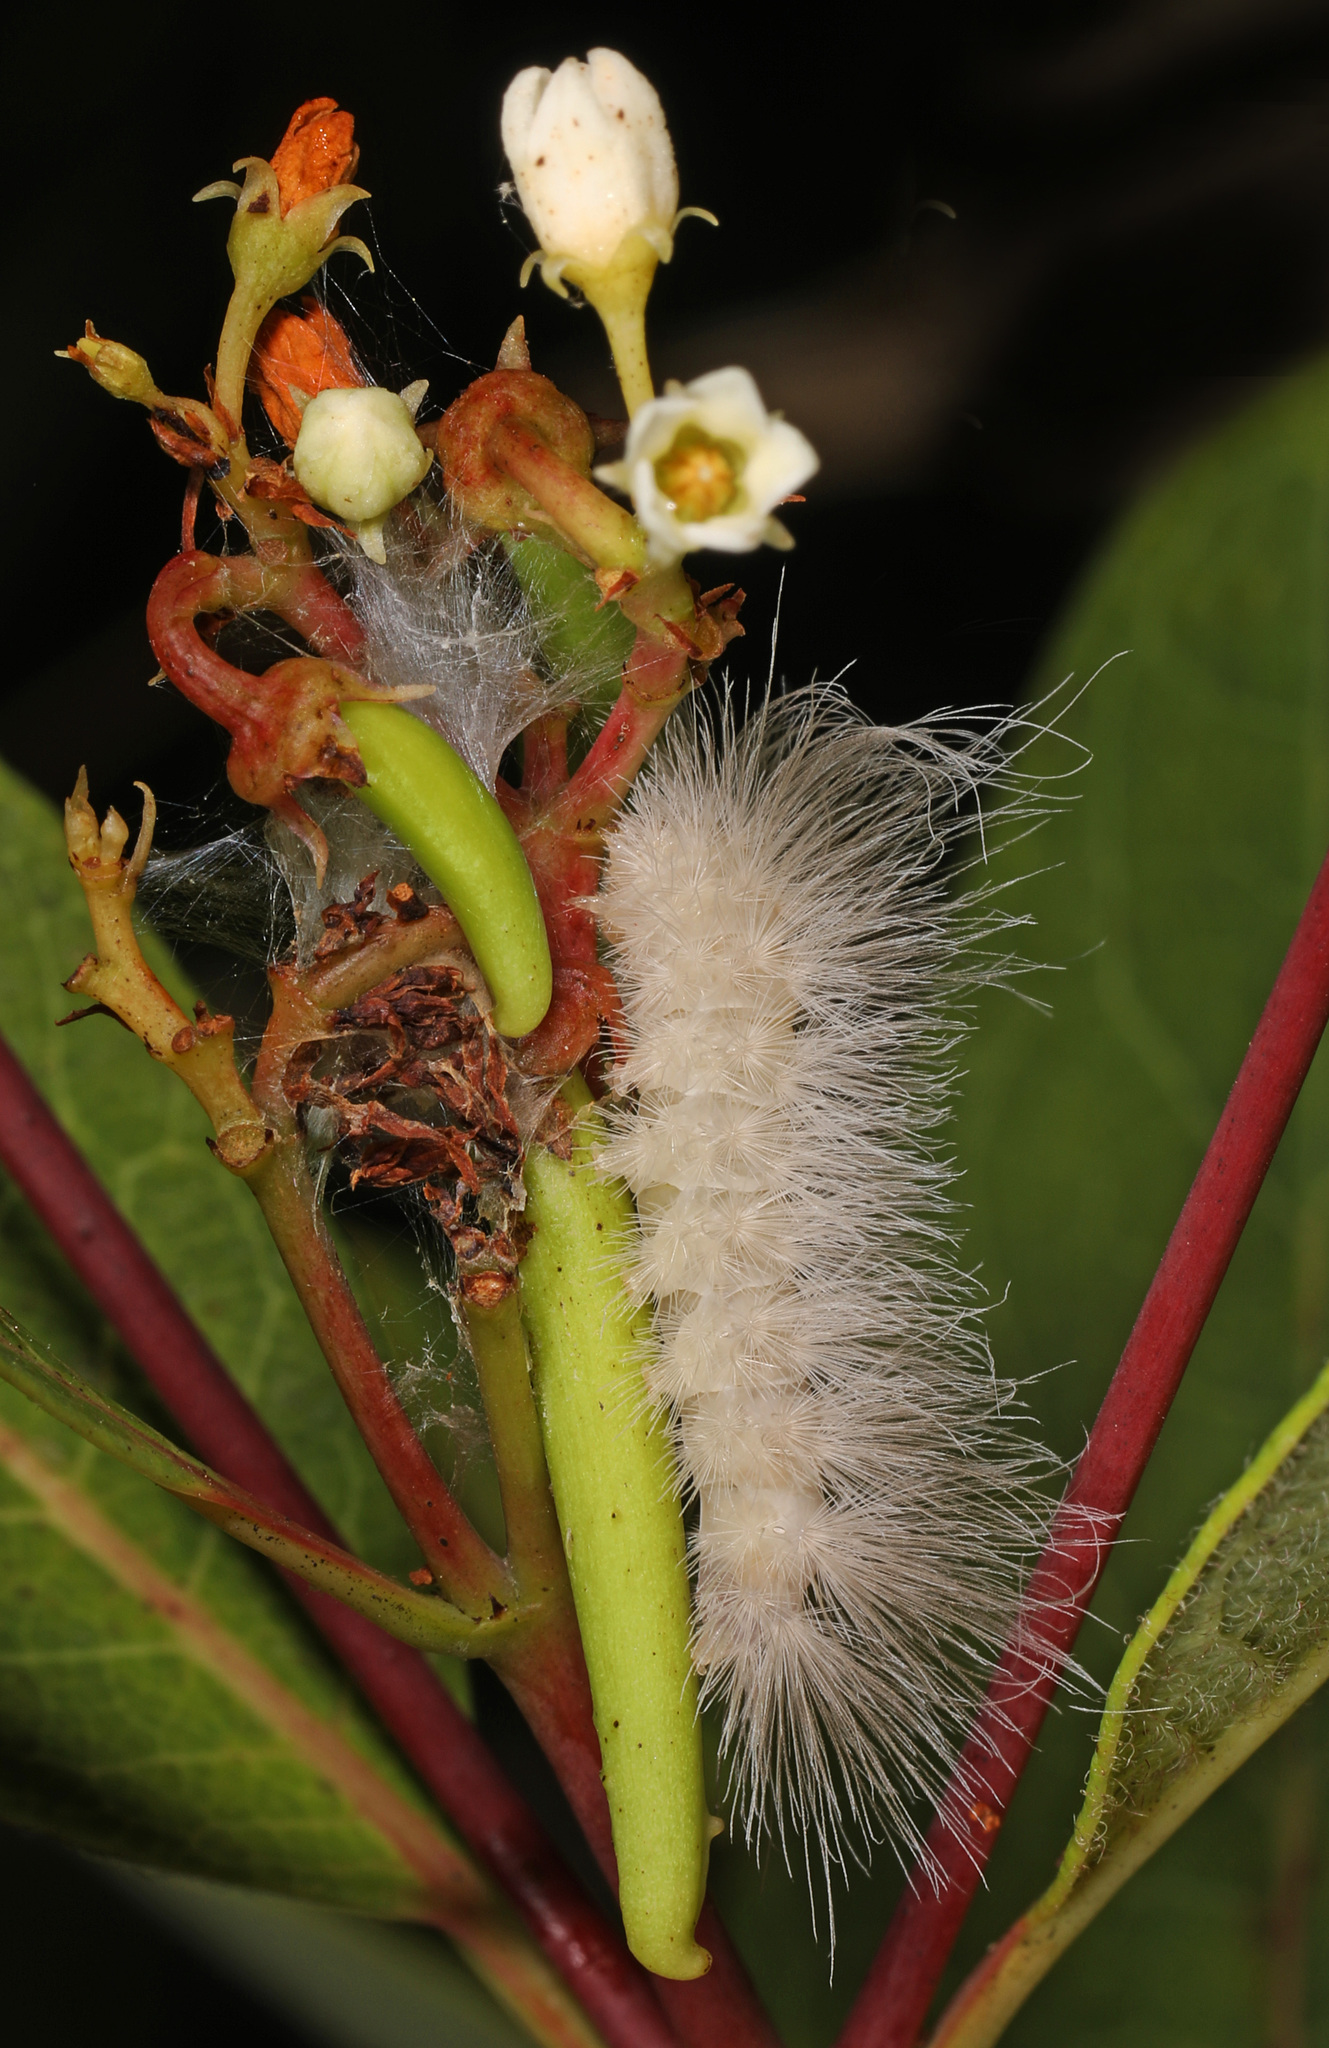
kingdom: Animalia
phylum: Arthropoda
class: Insecta
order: Lepidoptera
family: Erebidae
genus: Cycnia
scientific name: Cycnia tenera
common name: Delicate cycnia moth
